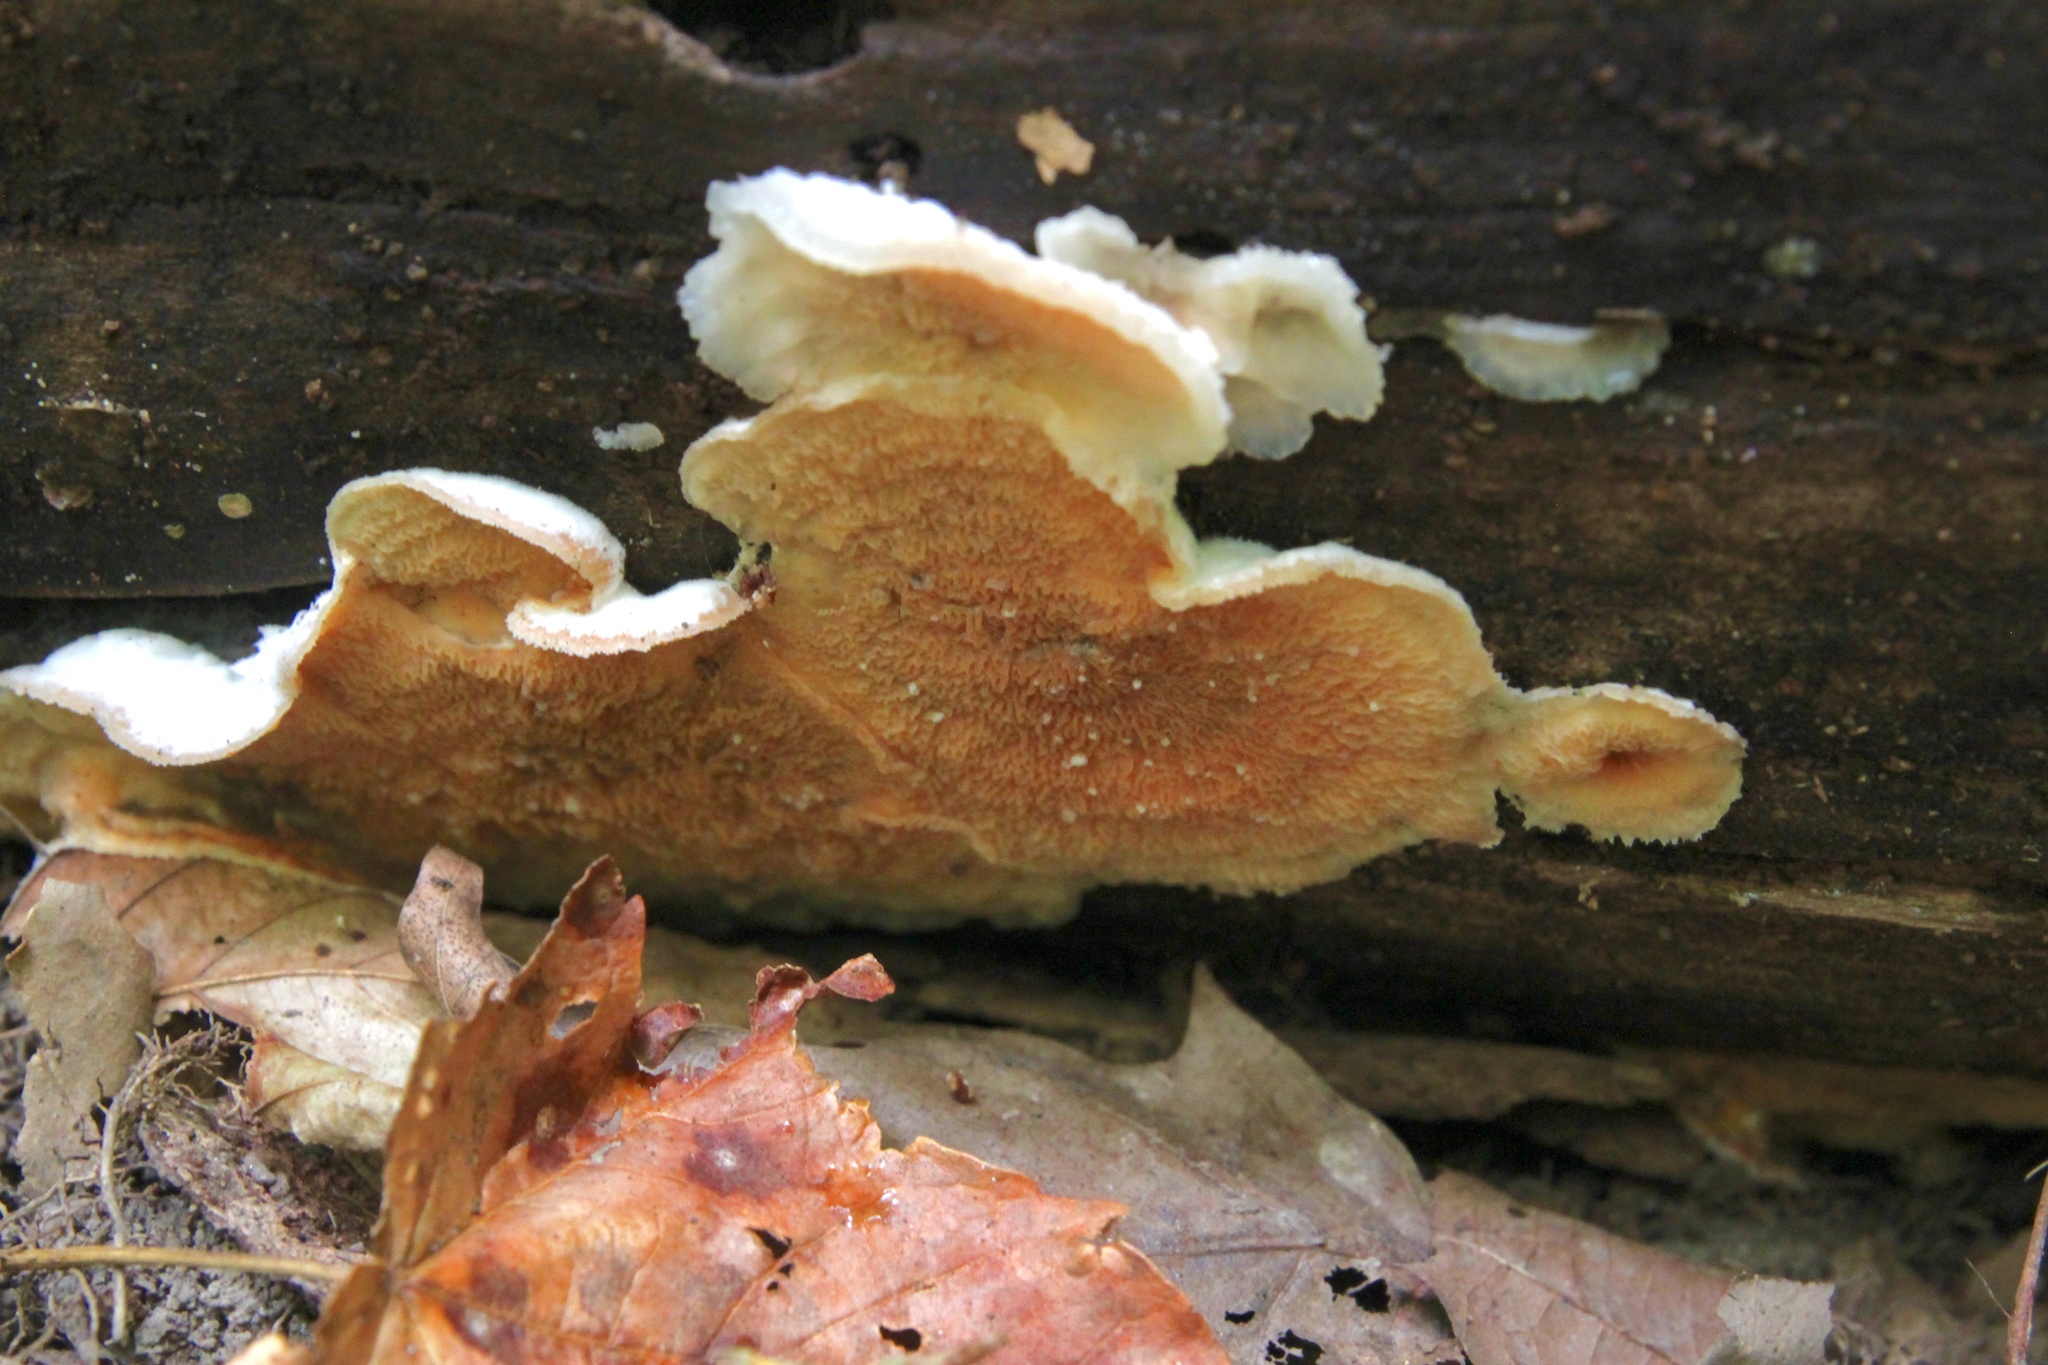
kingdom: Fungi
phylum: Basidiomycota
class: Agaricomycetes
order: Polyporales
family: Meruliaceae
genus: Phlebia
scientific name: Phlebia tremellosa
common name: Jelly rot
